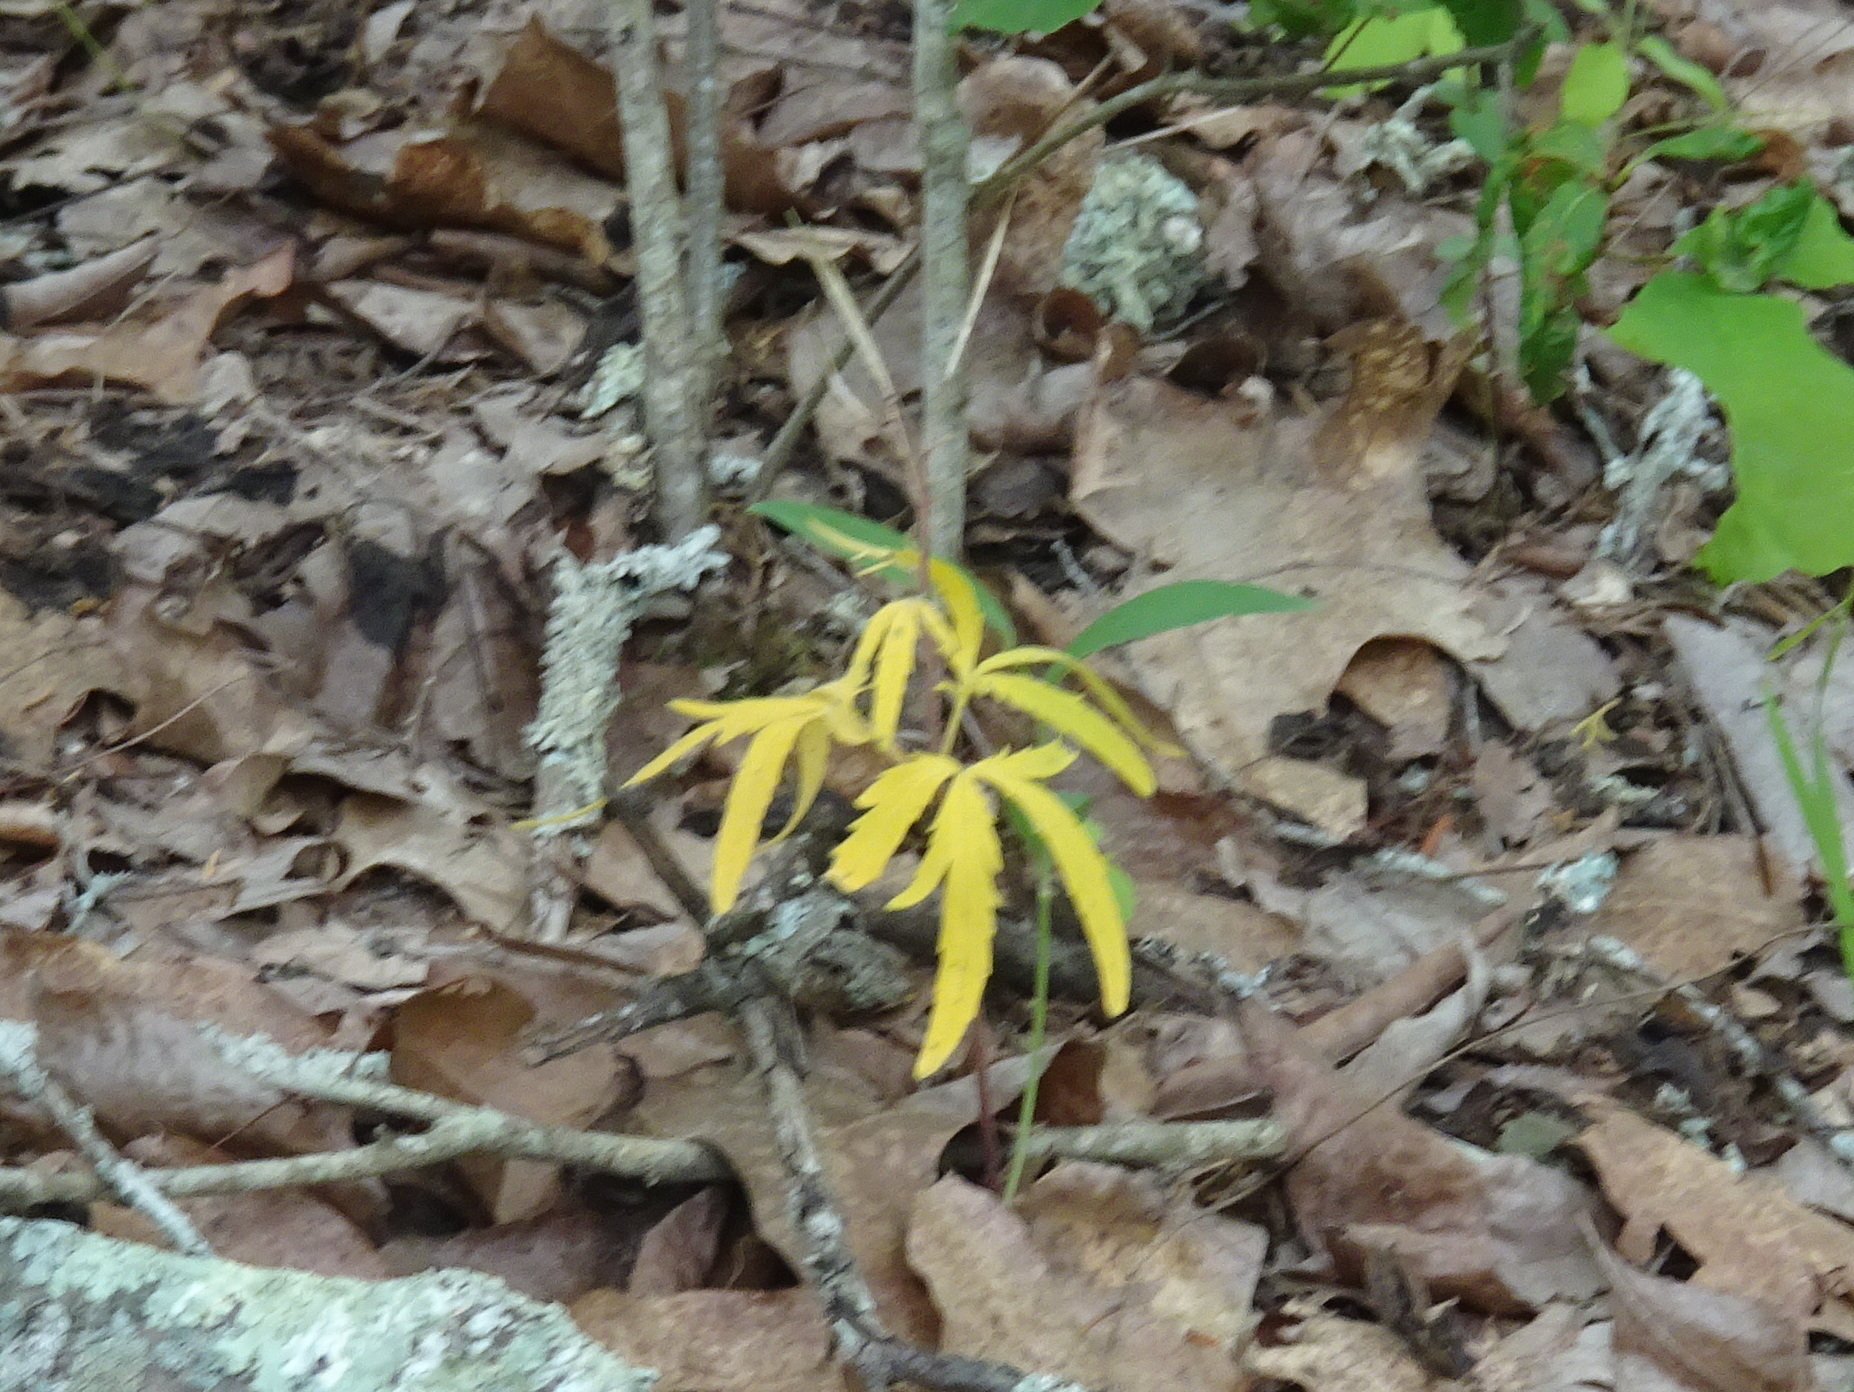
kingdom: Plantae
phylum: Tracheophyta
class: Magnoliopsida
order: Brassicales
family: Brassicaceae
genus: Cardamine
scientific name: Cardamine concatenata
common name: Cut-leaf toothcup
